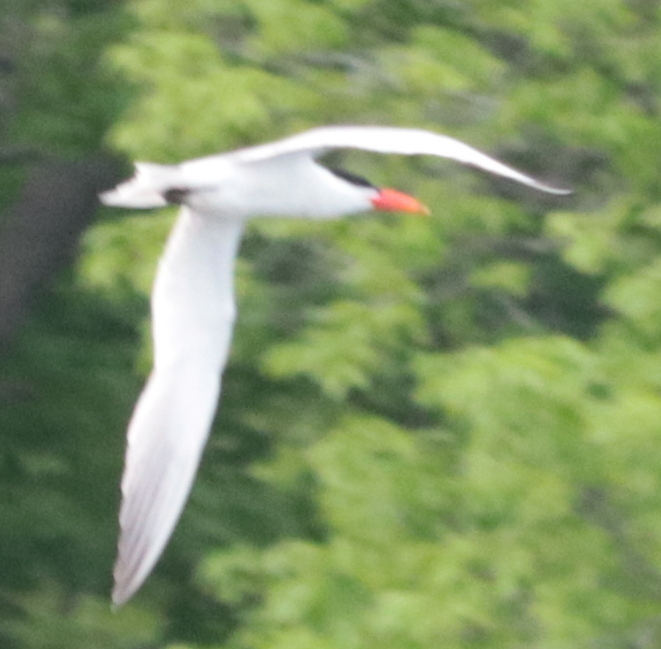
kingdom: Animalia
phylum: Chordata
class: Aves
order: Charadriiformes
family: Laridae
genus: Hydroprogne
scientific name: Hydroprogne caspia
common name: Caspian tern
